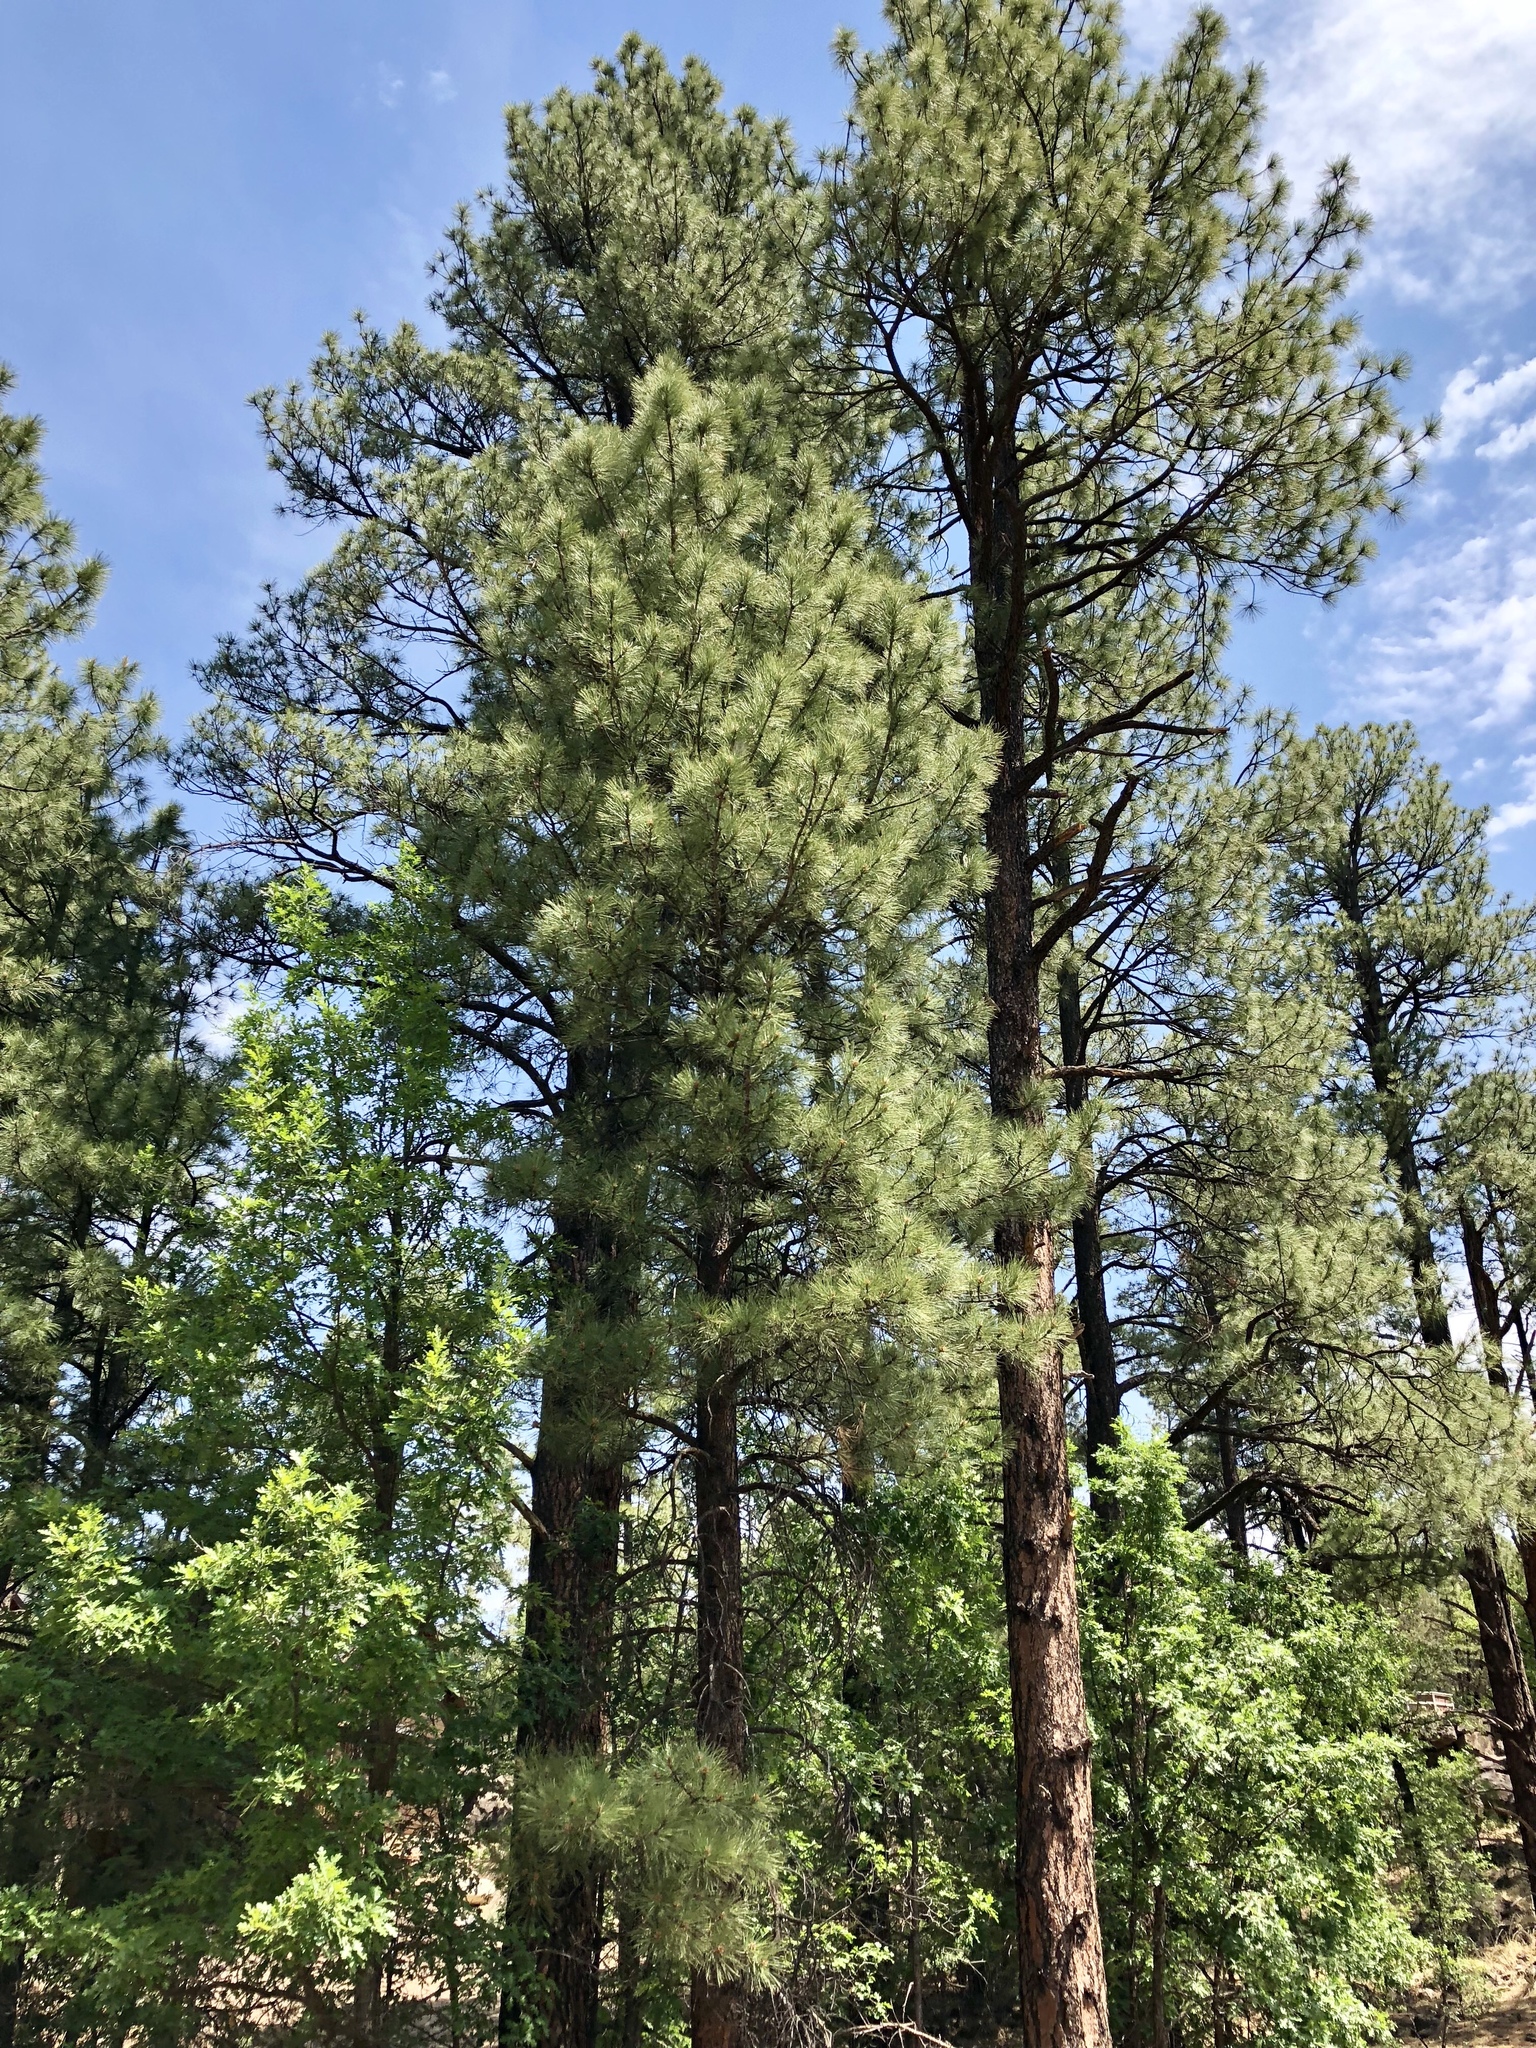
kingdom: Plantae
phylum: Tracheophyta
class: Pinopsida
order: Pinales
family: Pinaceae
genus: Pinus
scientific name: Pinus ponderosa
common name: Western yellow-pine
